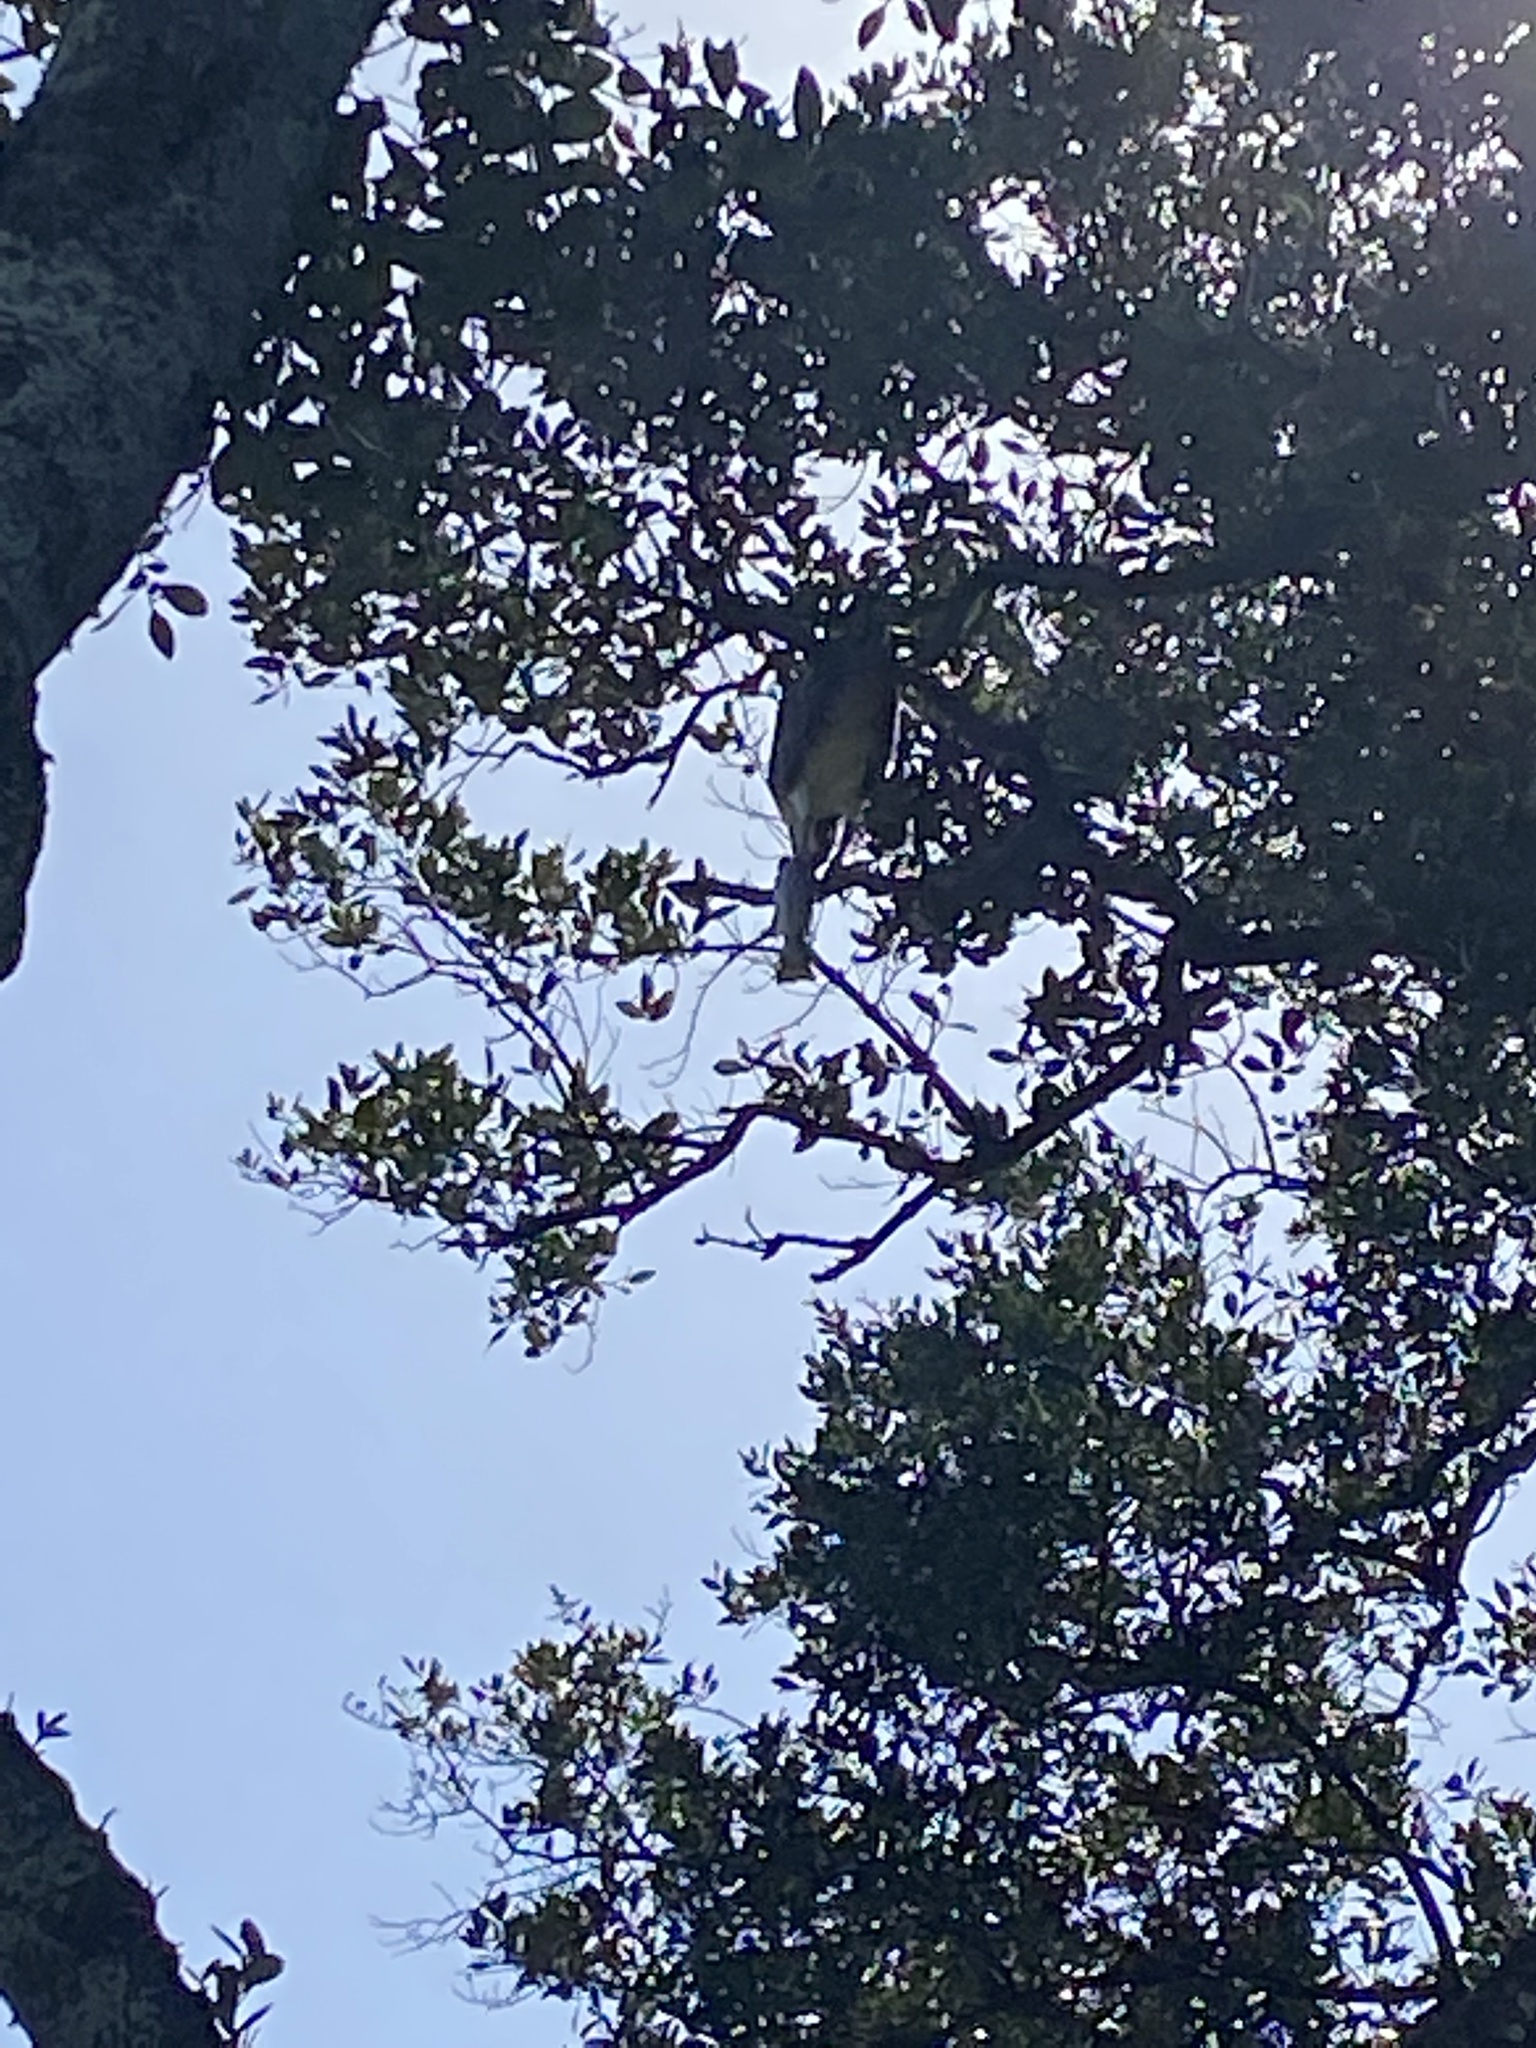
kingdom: Animalia
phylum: Chordata
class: Aves
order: Accipitriformes
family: Pandionidae
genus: Pandion
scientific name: Pandion haliaetus
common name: Osprey
